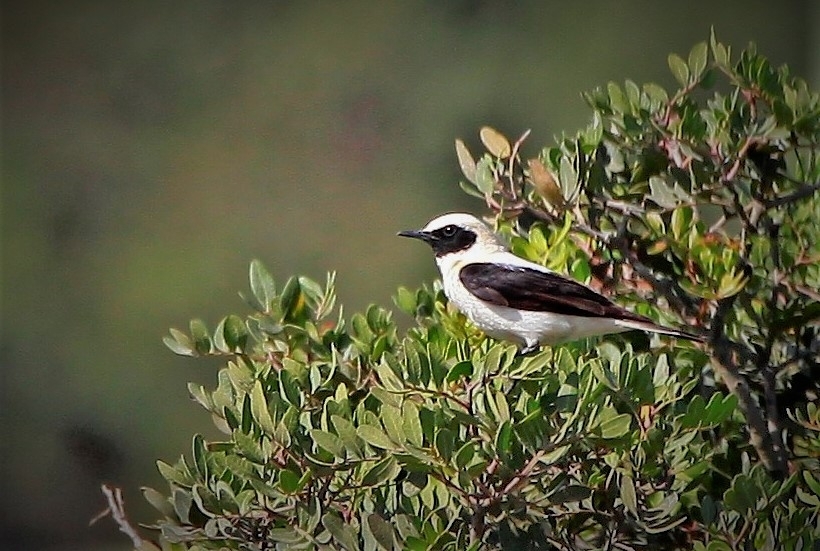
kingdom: Animalia
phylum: Chordata
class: Aves
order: Passeriformes
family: Muscicapidae
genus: Oenanthe
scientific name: Oenanthe hispanica
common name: Black-eared wheatear
